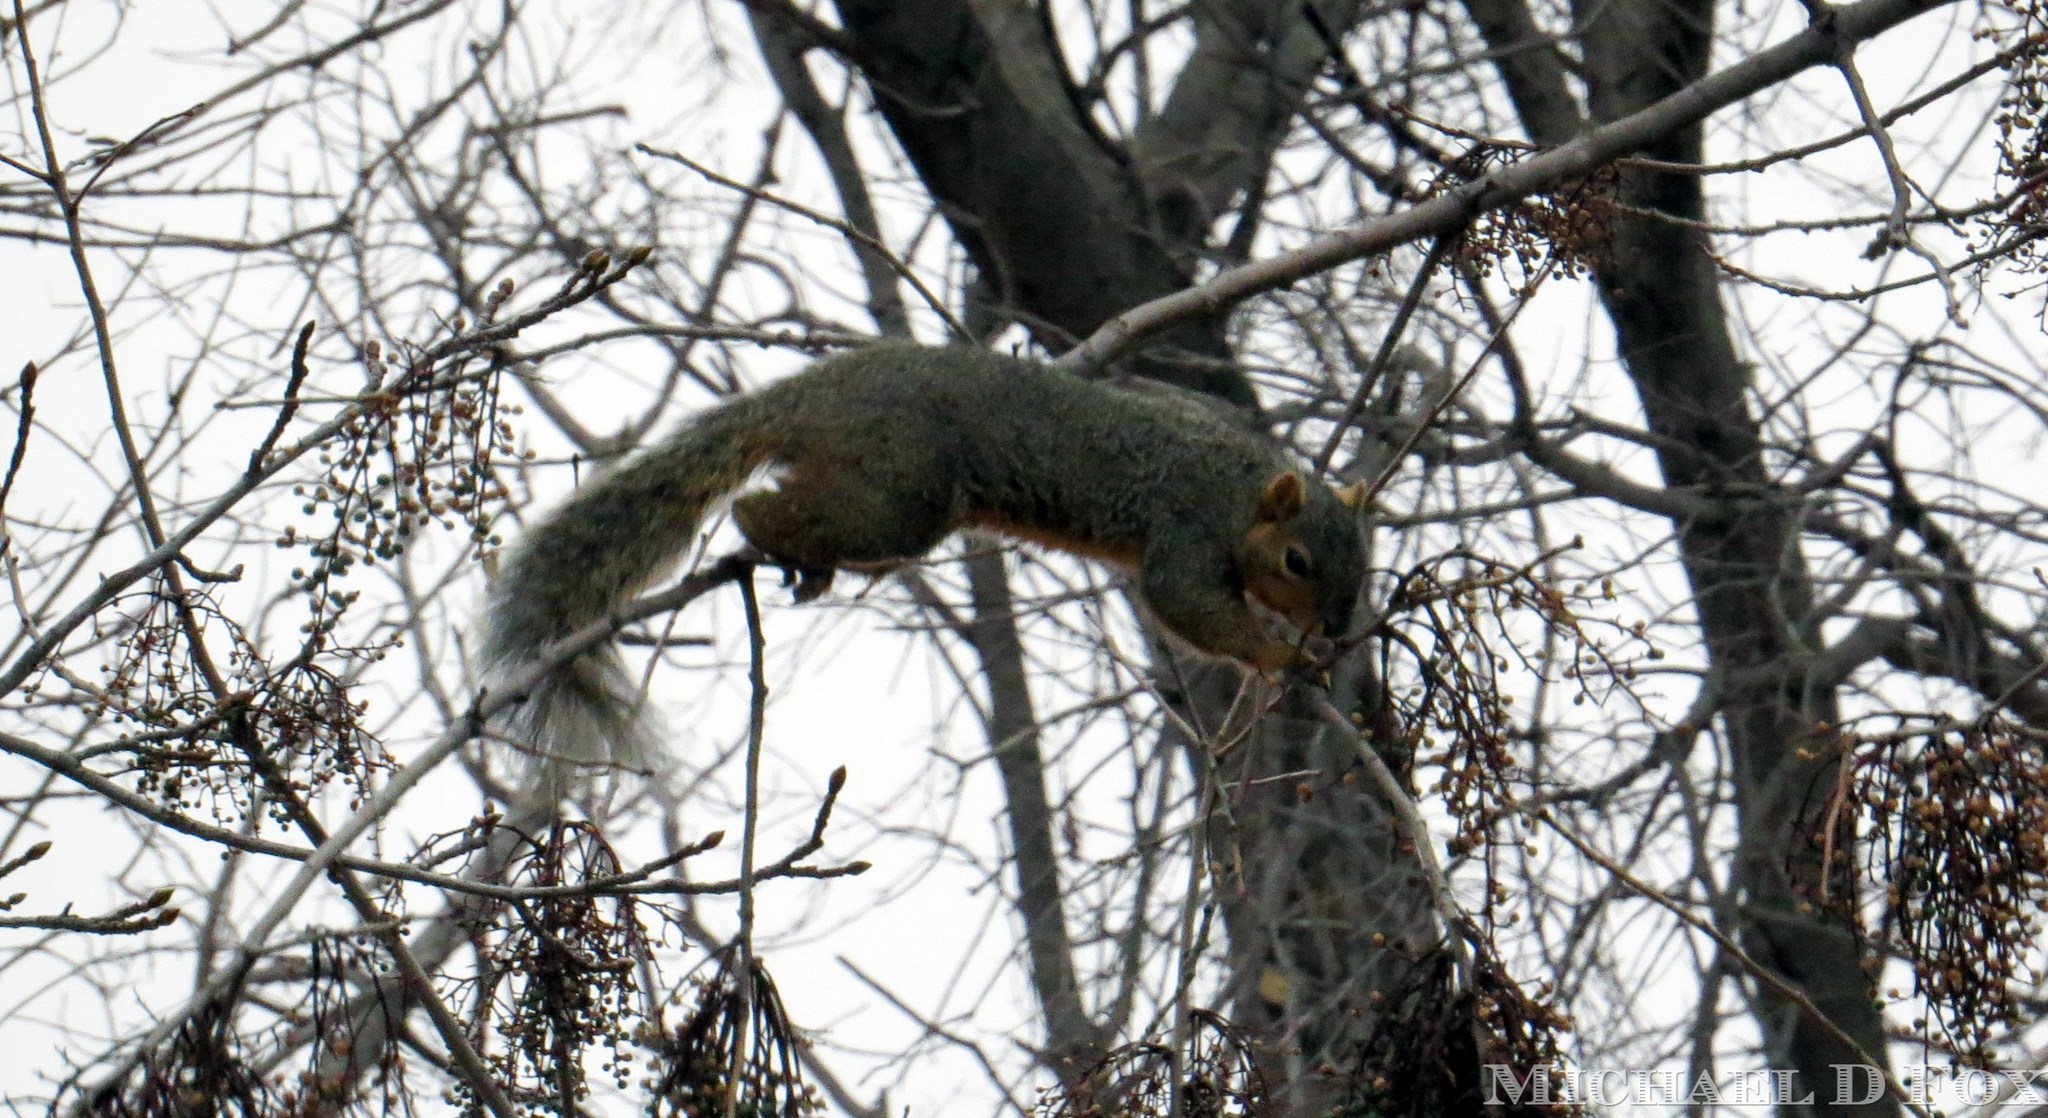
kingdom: Animalia
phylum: Chordata
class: Mammalia
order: Rodentia
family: Sciuridae
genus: Sciurus
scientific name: Sciurus niger
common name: Fox squirrel
